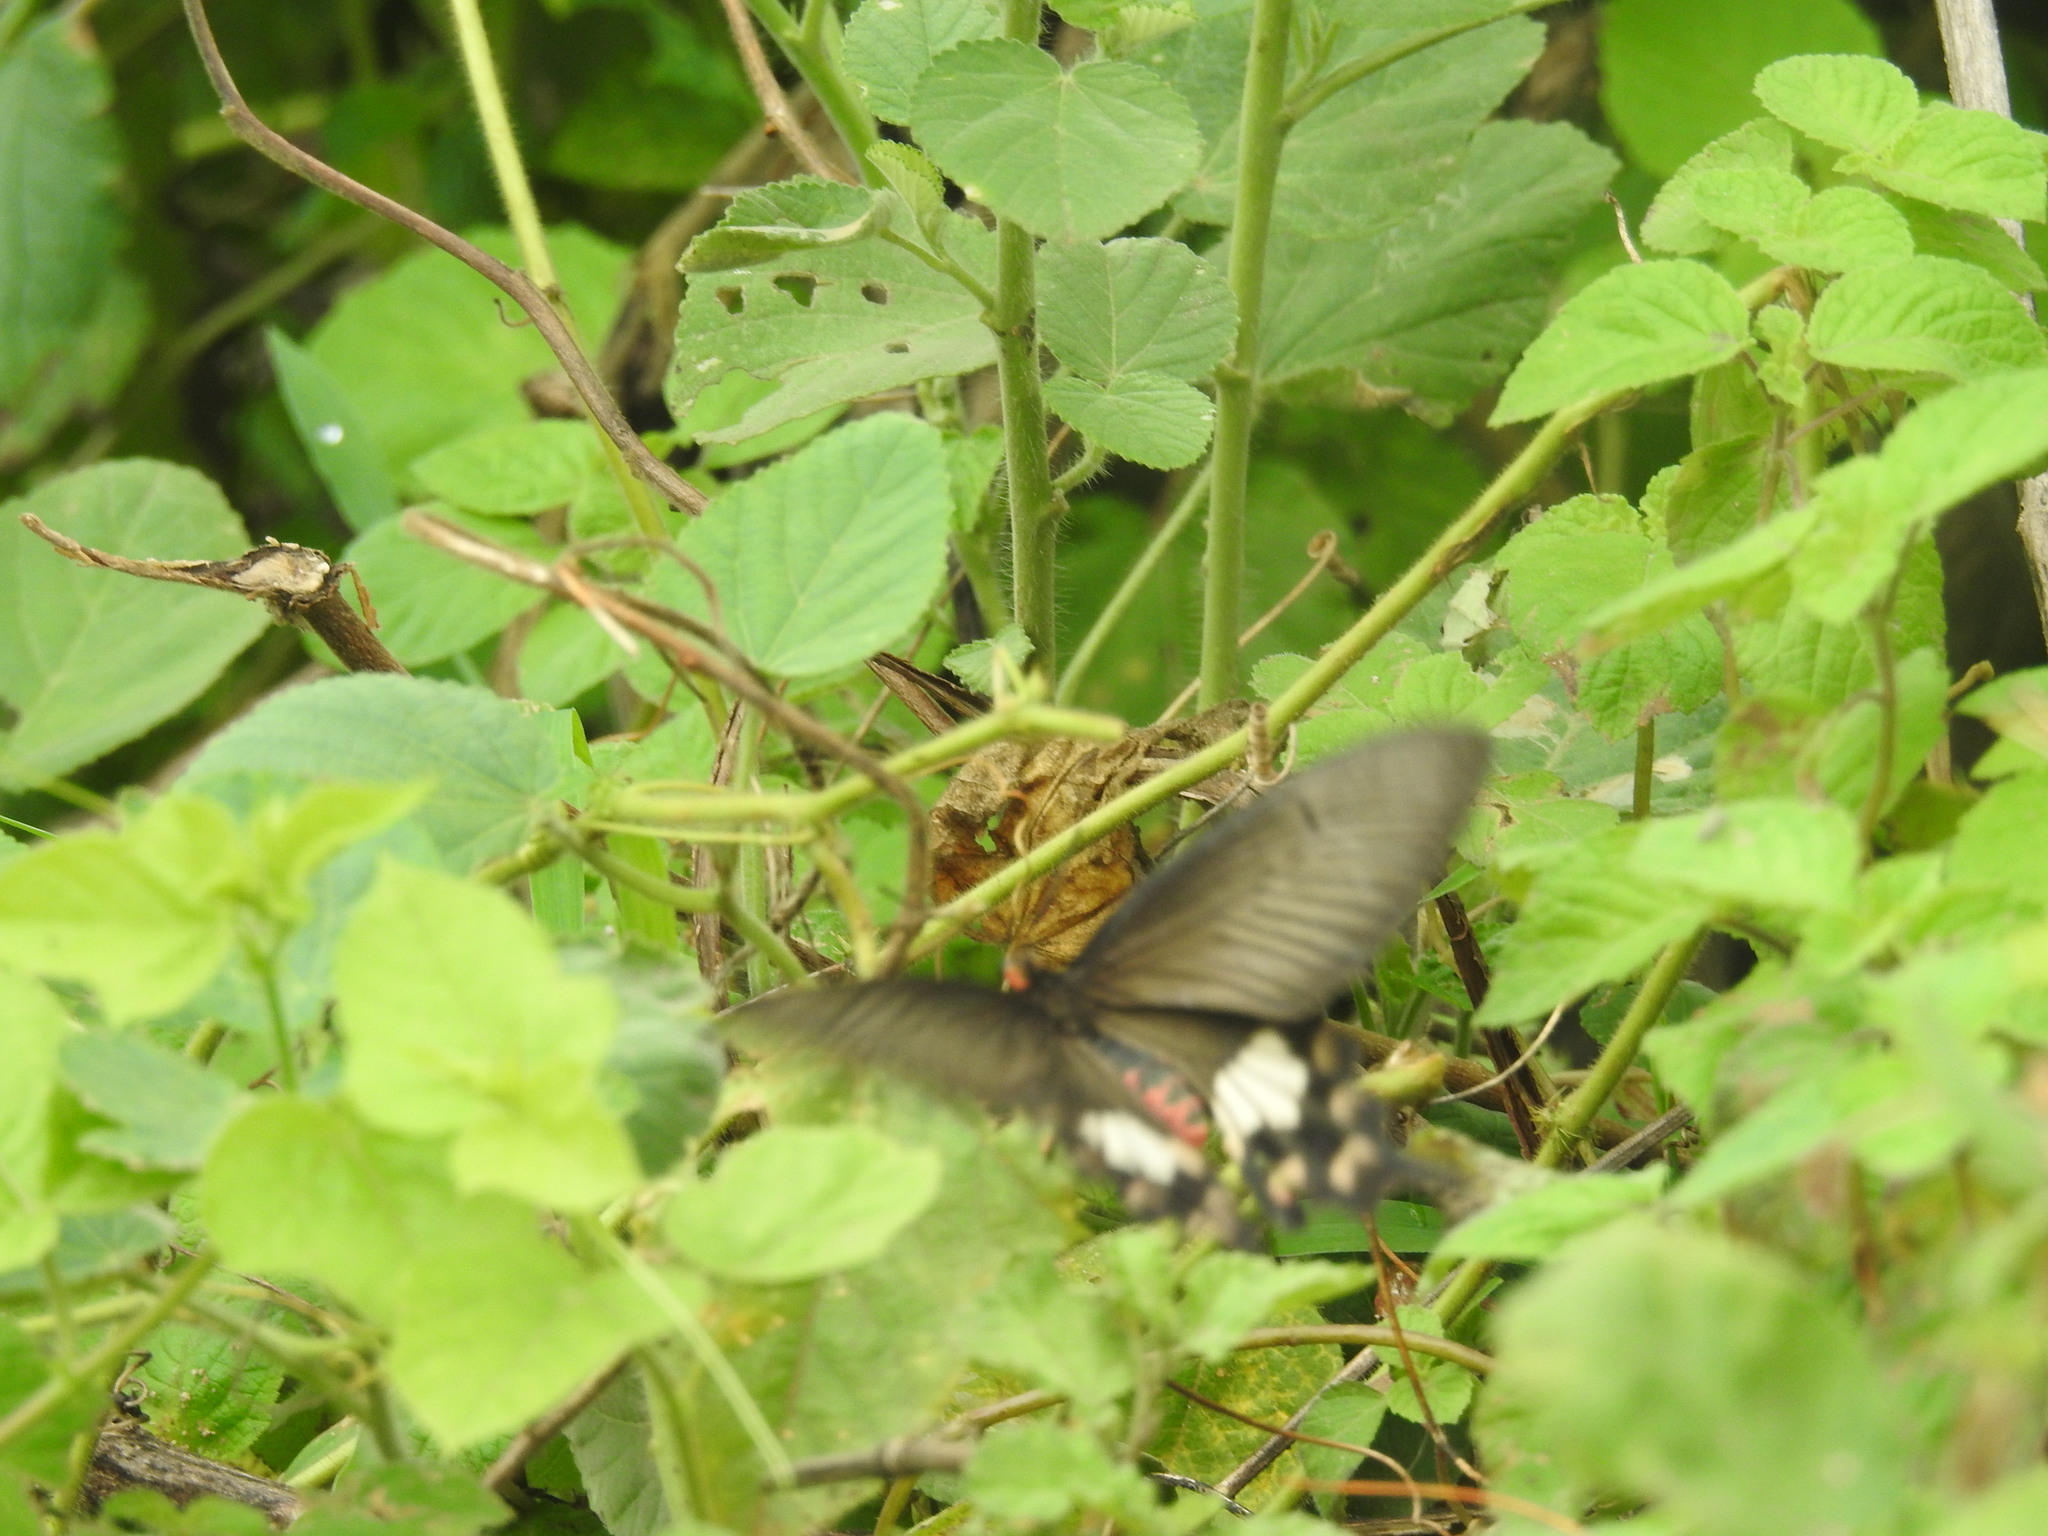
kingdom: Animalia
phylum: Arthropoda
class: Insecta
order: Lepidoptera
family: Papilionidae
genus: Pachliopta
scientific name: Pachliopta aristolochiae
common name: Common rose
